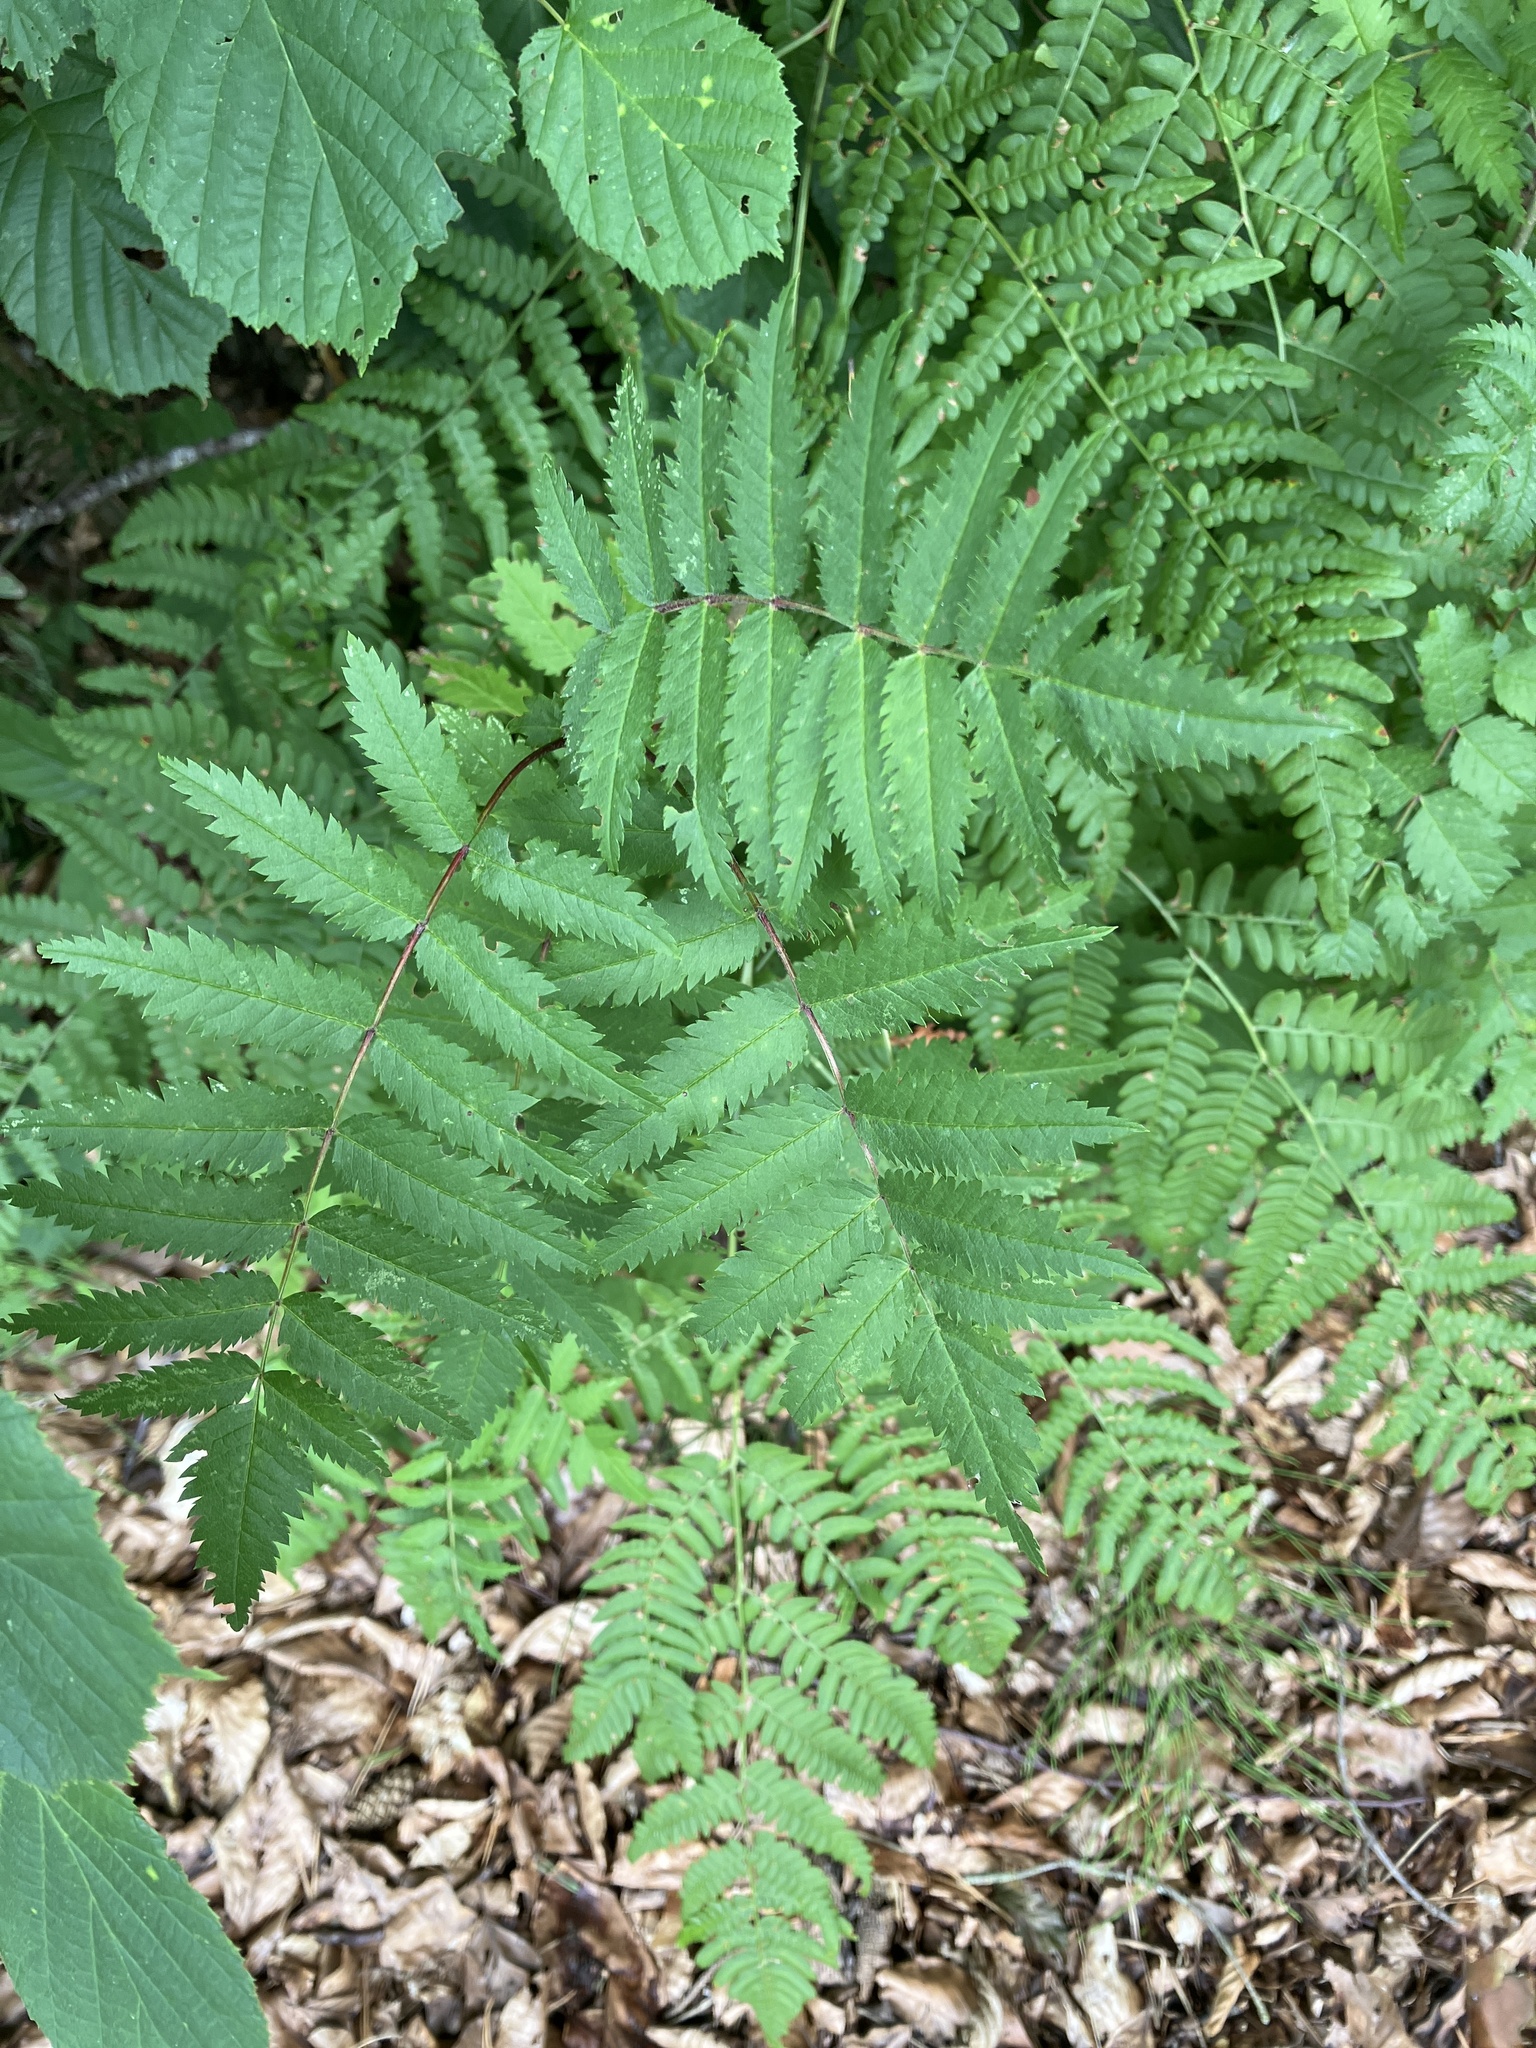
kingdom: Plantae
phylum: Tracheophyta
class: Magnoliopsida
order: Rosales
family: Rosaceae
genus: Sorbus
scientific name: Sorbus aucuparia
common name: Rowan
